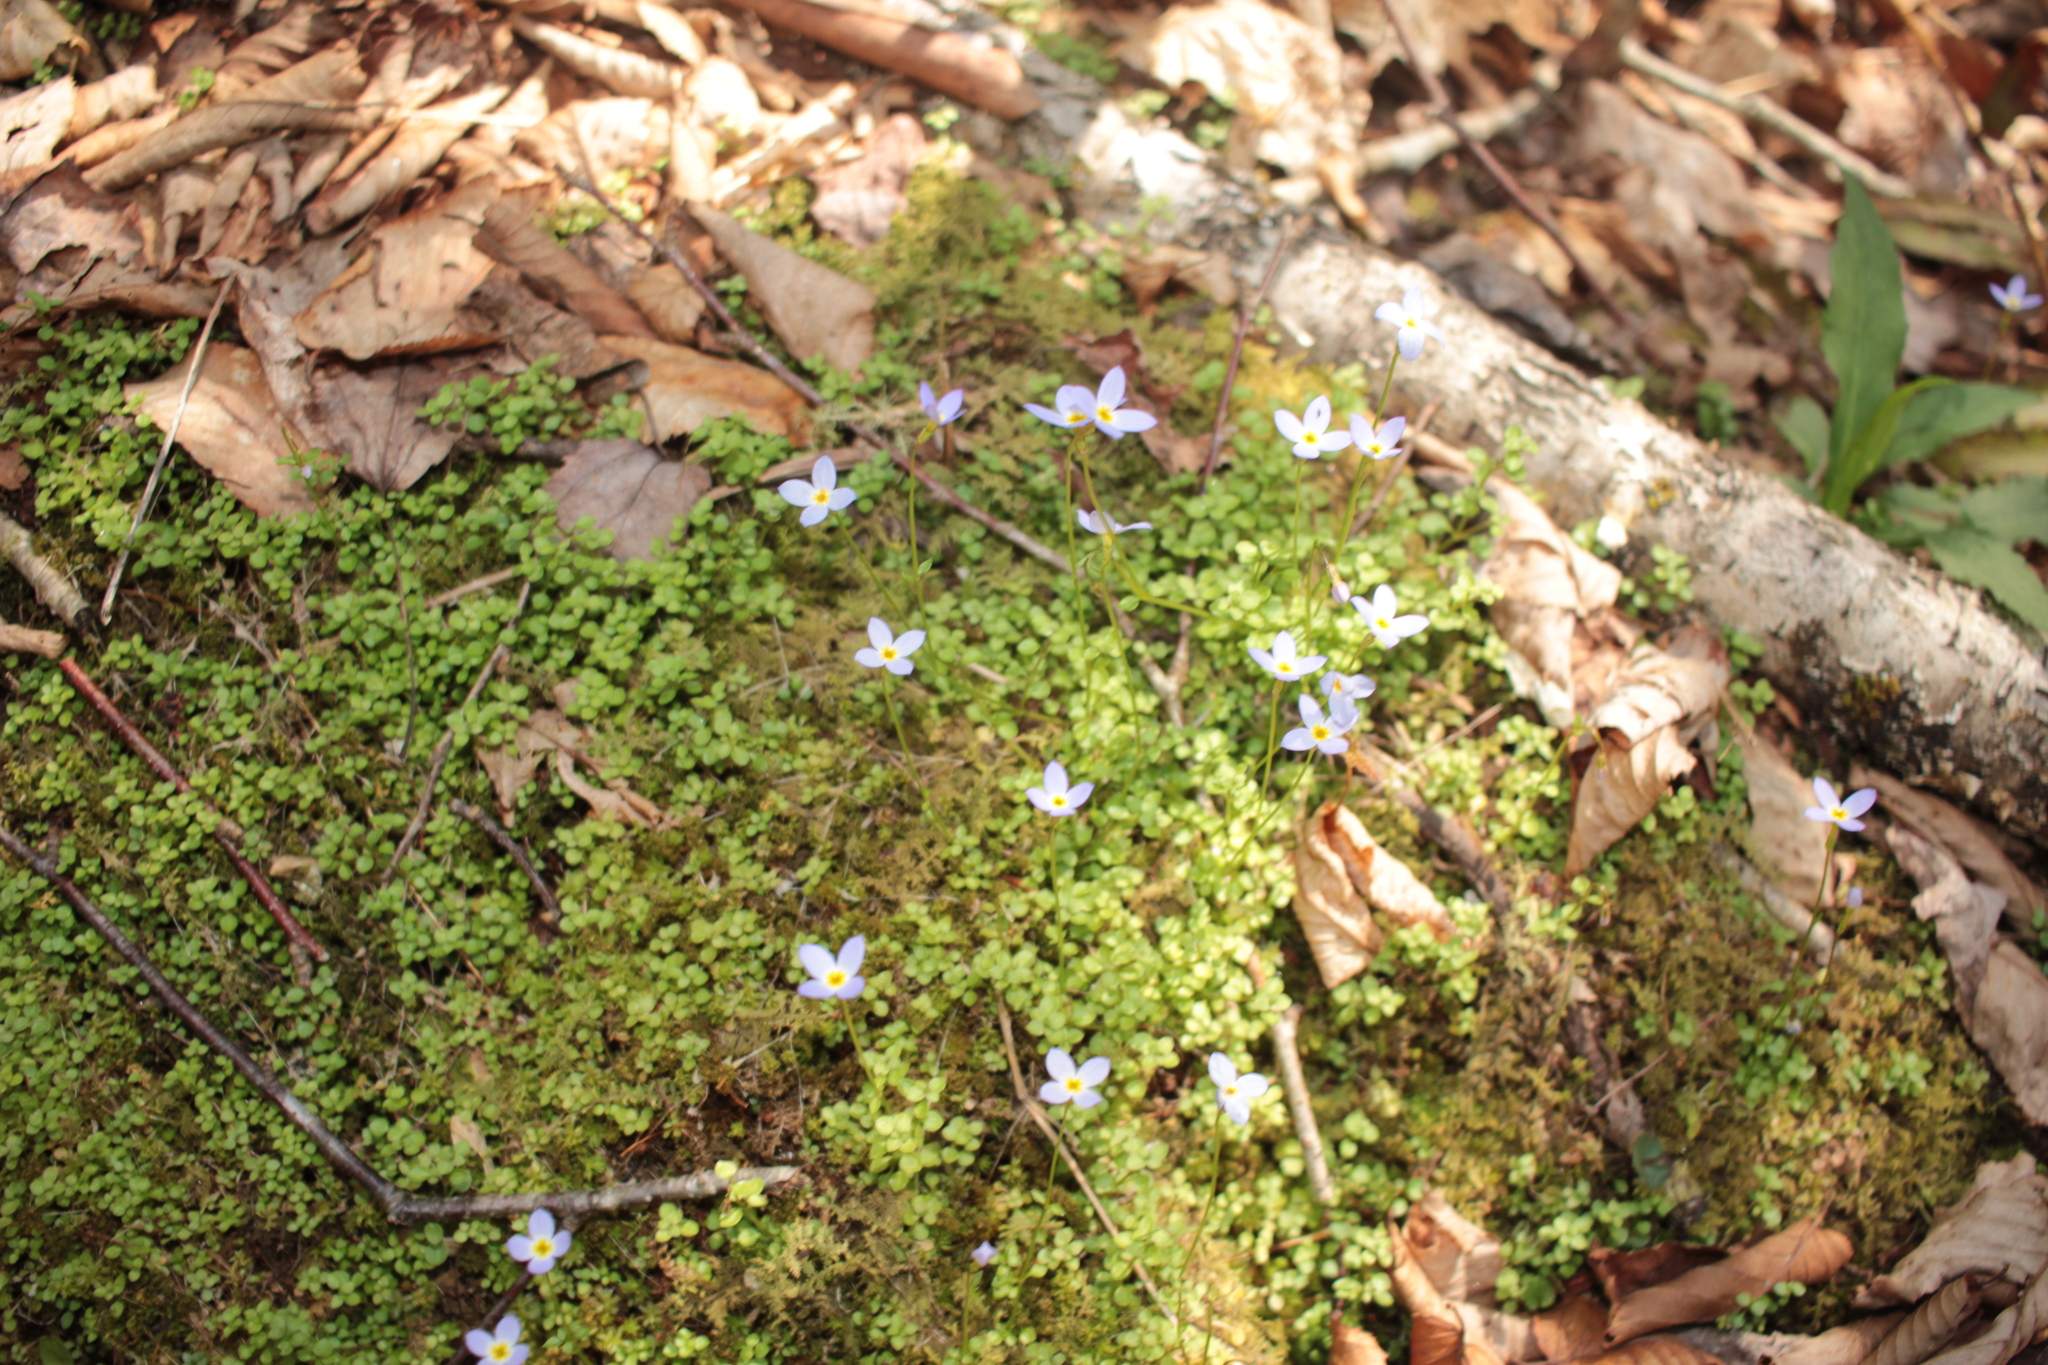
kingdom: Plantae
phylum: Tracheophyta
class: Magnoliopsida
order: Gentianales
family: Rubiaceae
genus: Houstonia
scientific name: Houstonia serpyllifolia
